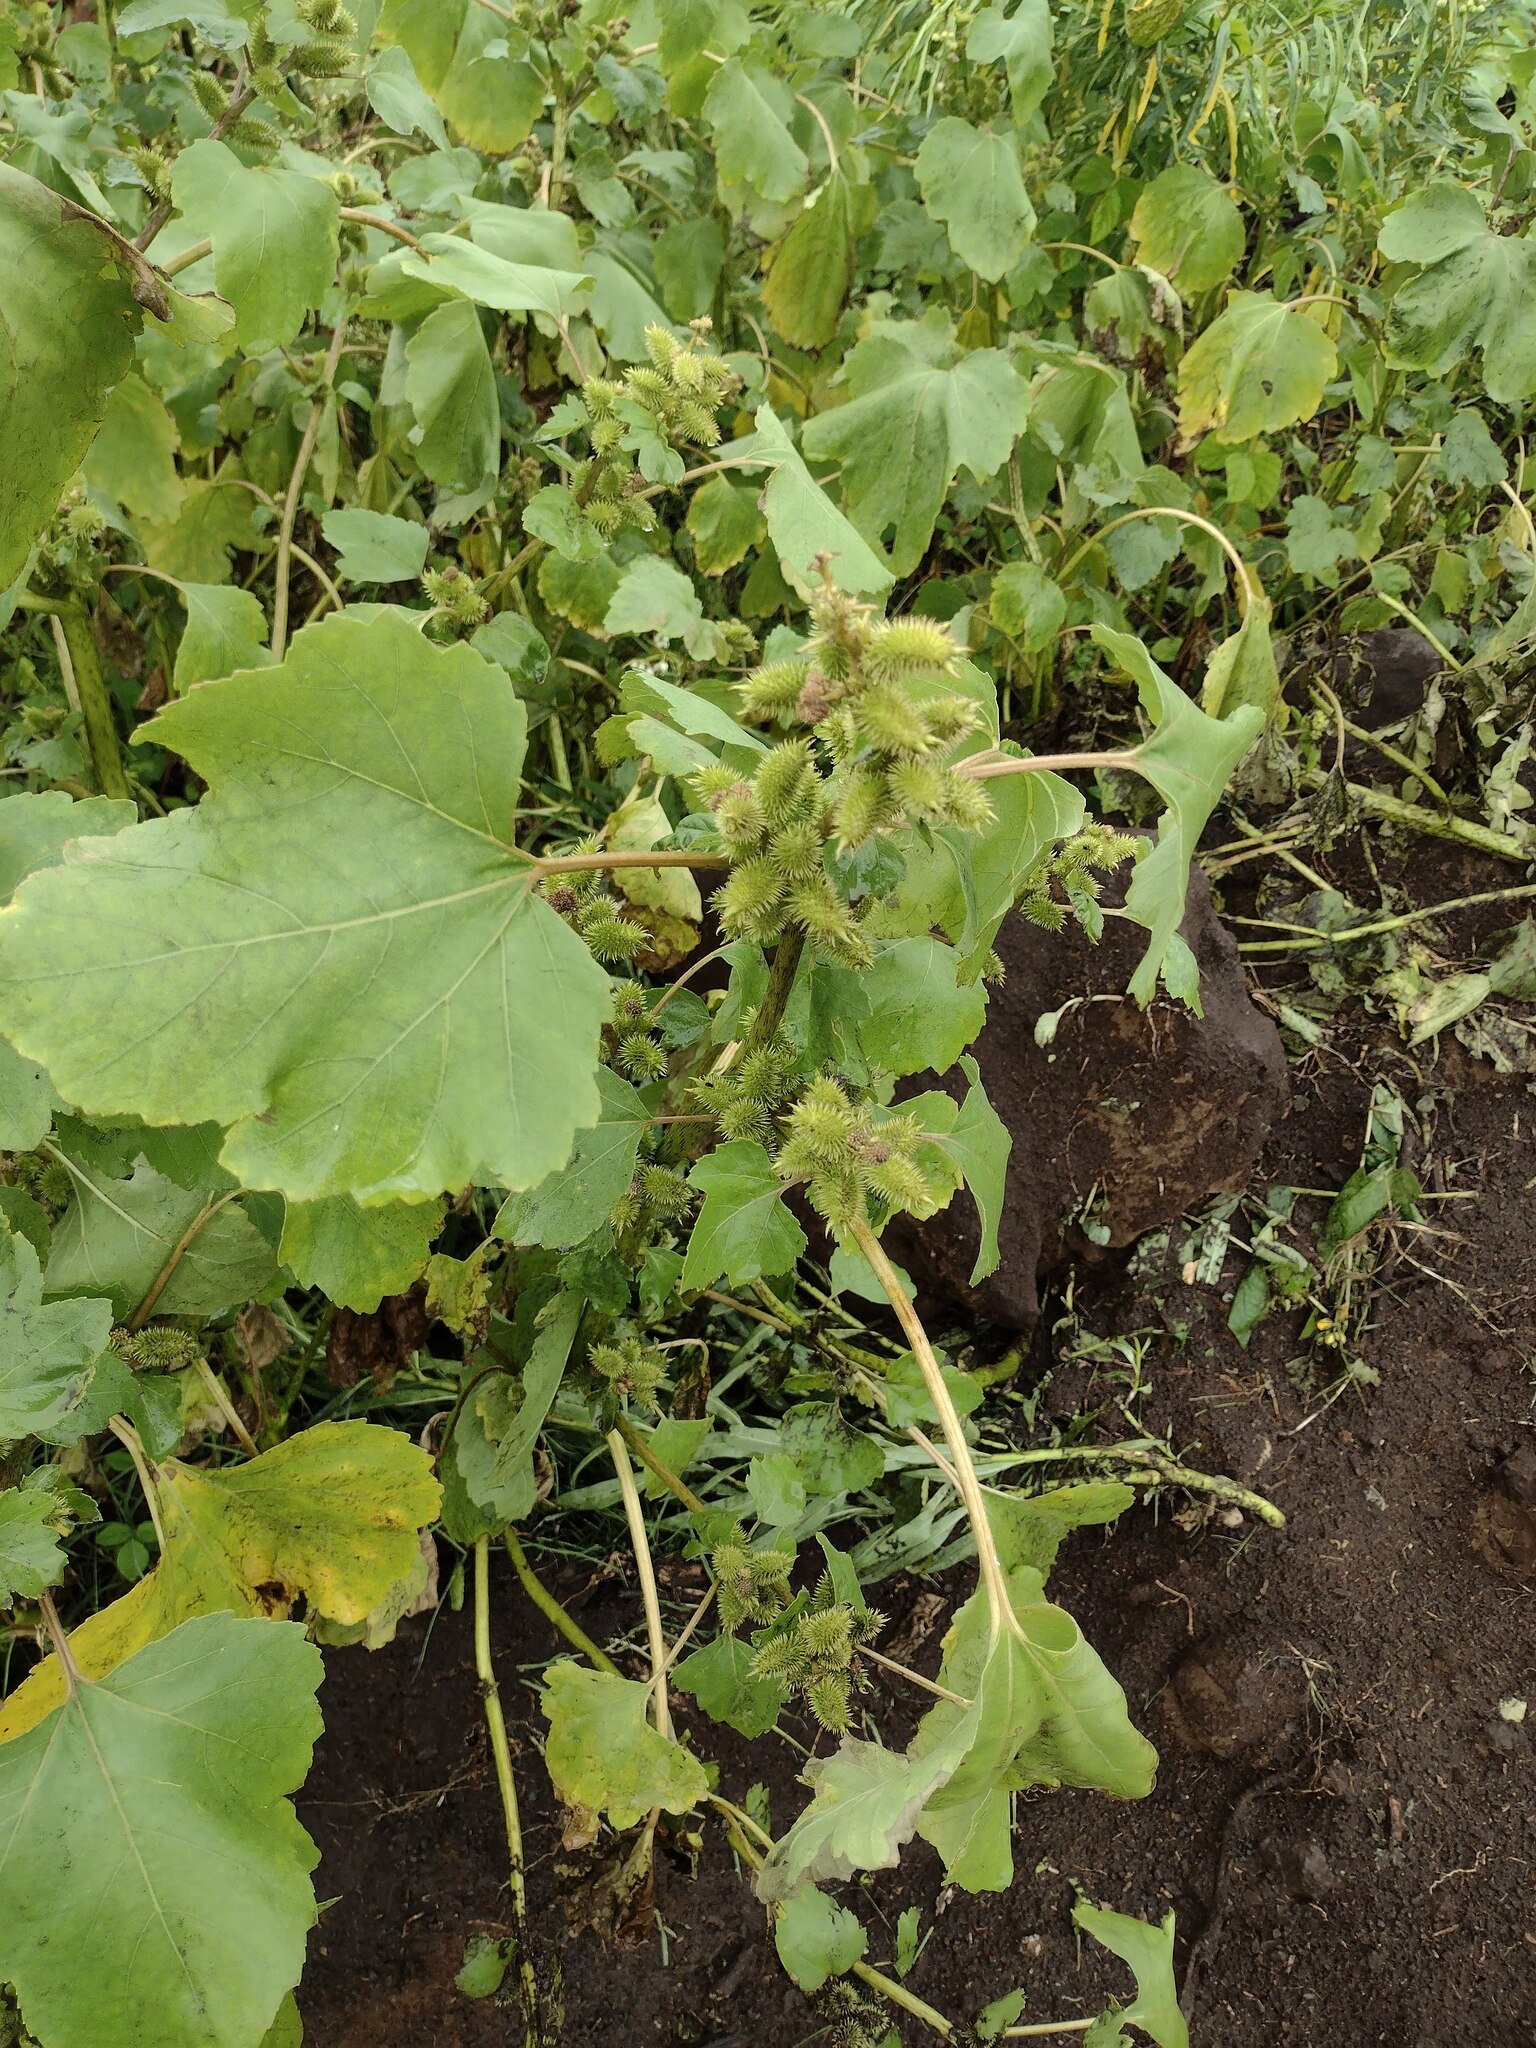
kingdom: Plantae
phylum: Tracheophyta
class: Magnoliopsida
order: Asterales
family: Asteraceae
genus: Xanthium
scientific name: Xanthium strumarium
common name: Rough cocklebur
